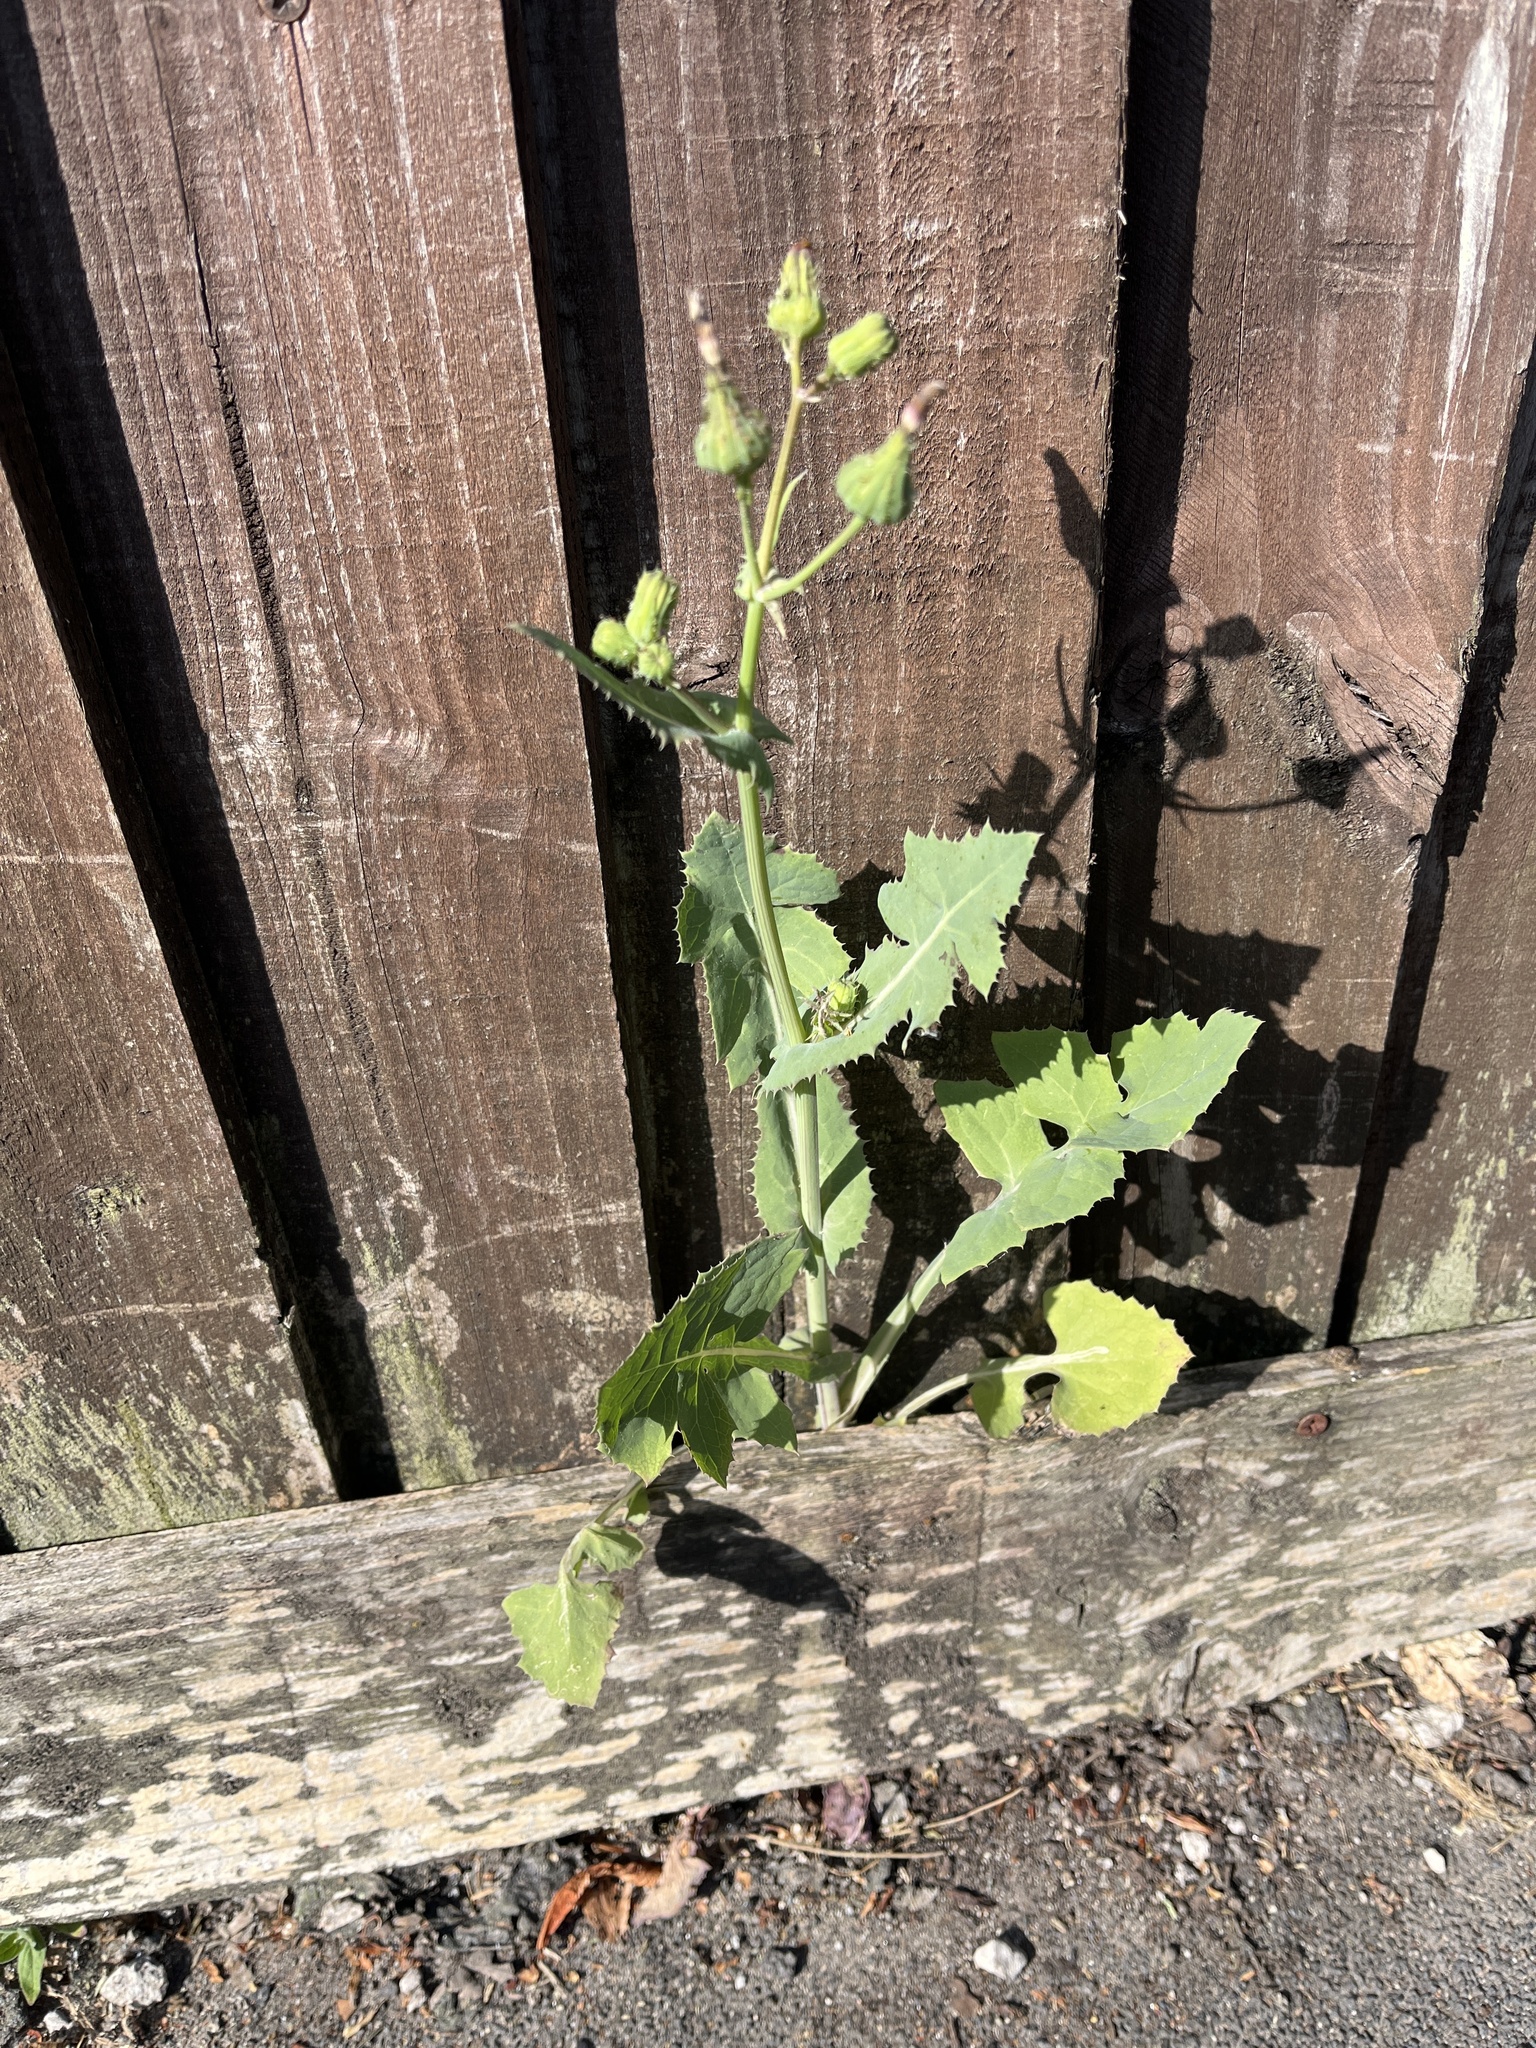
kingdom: Plantae
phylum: Tracheophyta
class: Magnoliopsida
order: Asterales
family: Asteraceae
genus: Sonchus
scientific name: Sonchus oleraceus
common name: Common sowthistle
